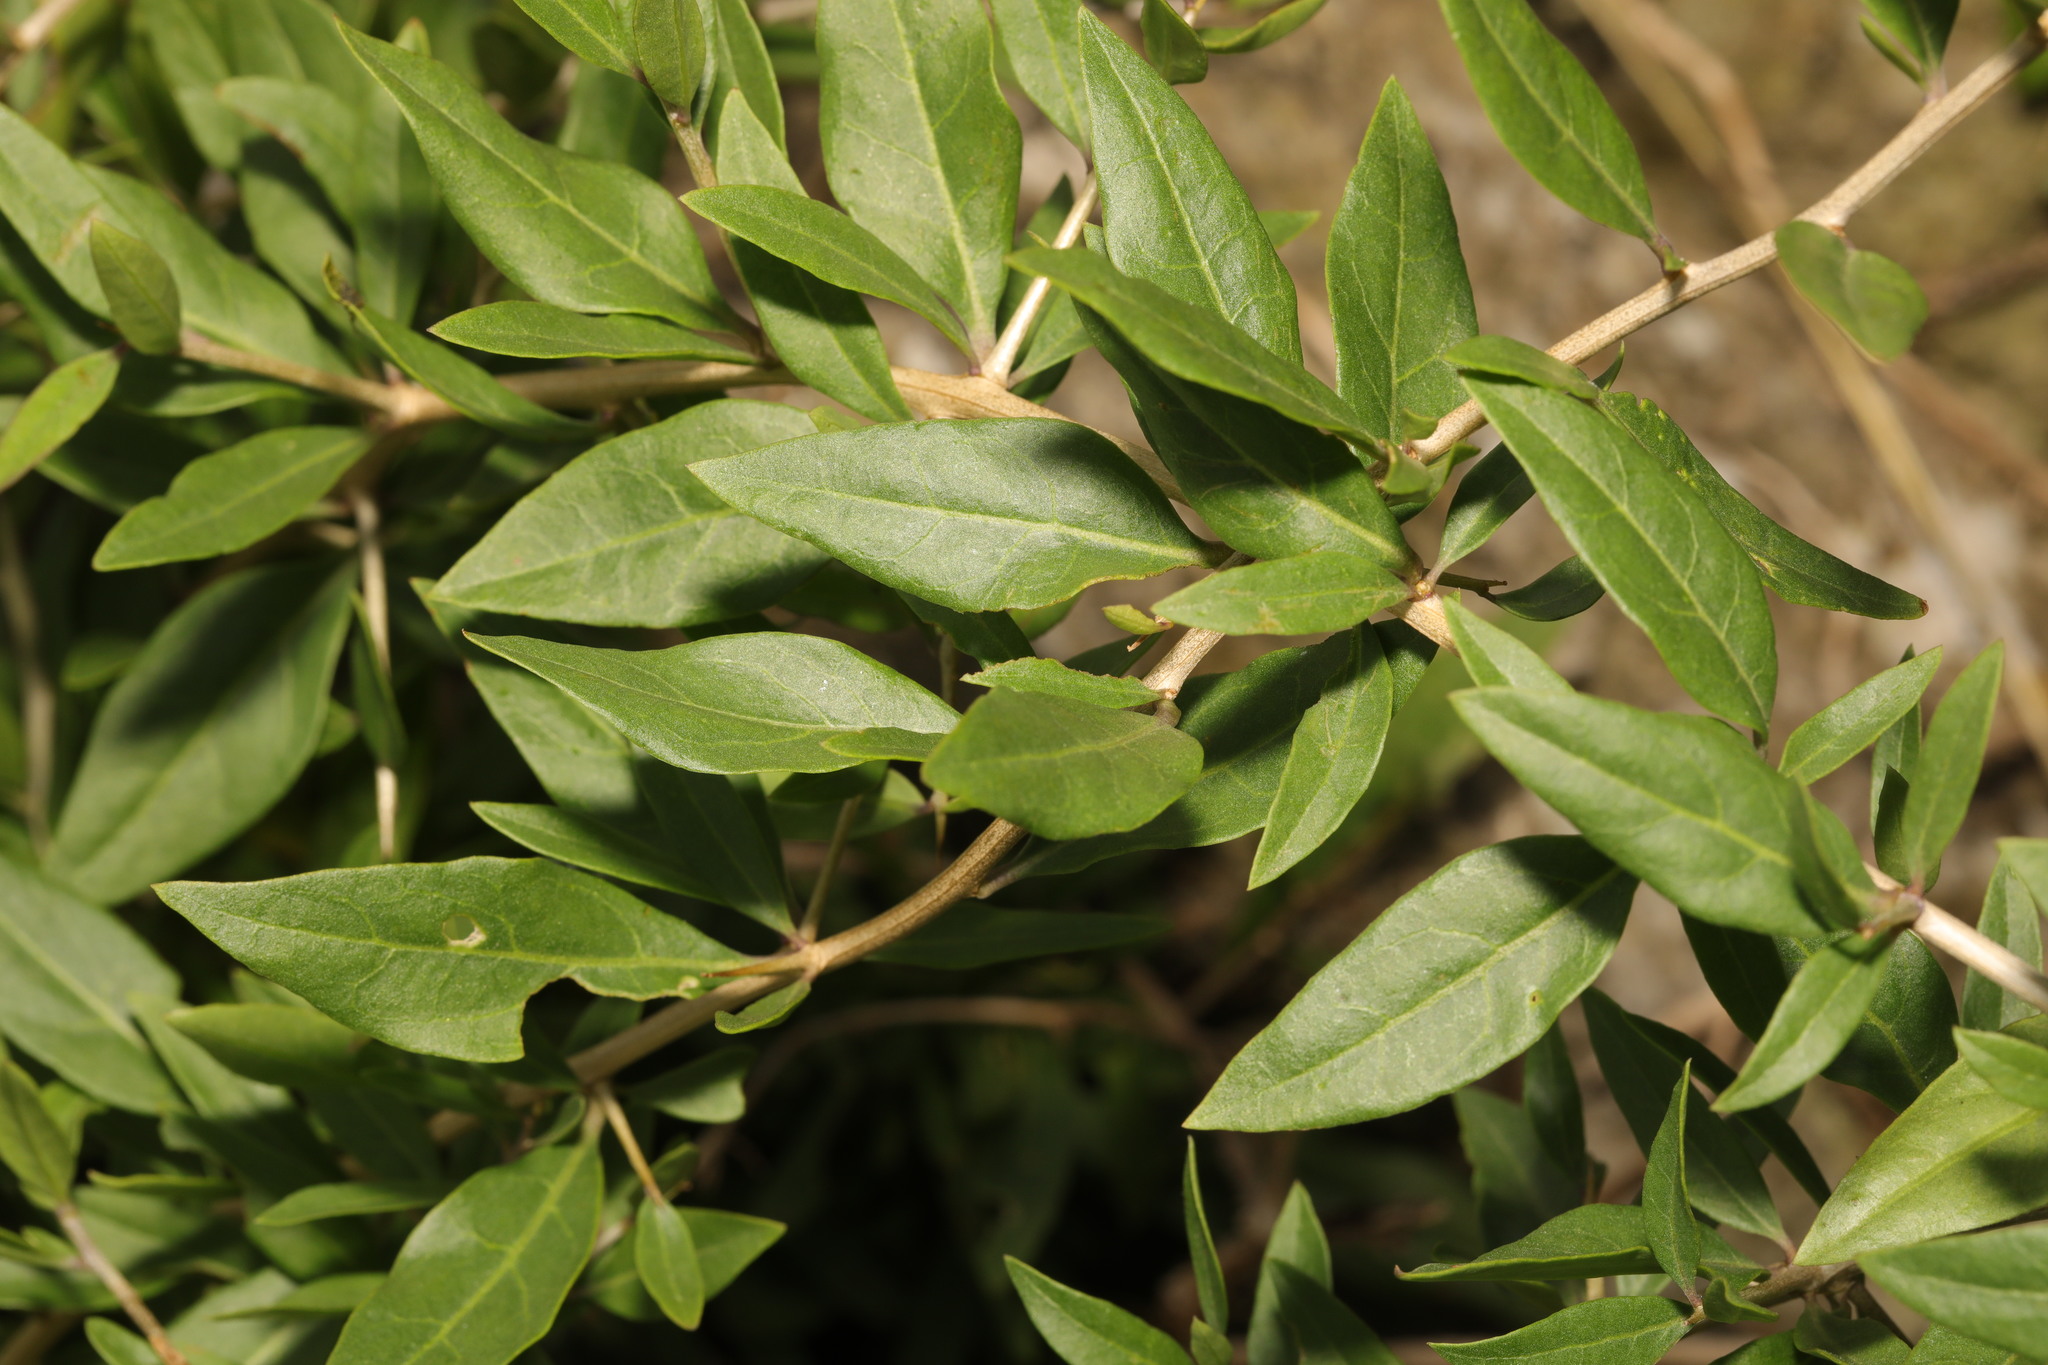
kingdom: Plantae
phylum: Tracheophyta
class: Magnoliopsida
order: Solanales
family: Solanaceae
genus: Lycium
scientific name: Lycium barbarum
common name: Duke of argyll's teaplant
